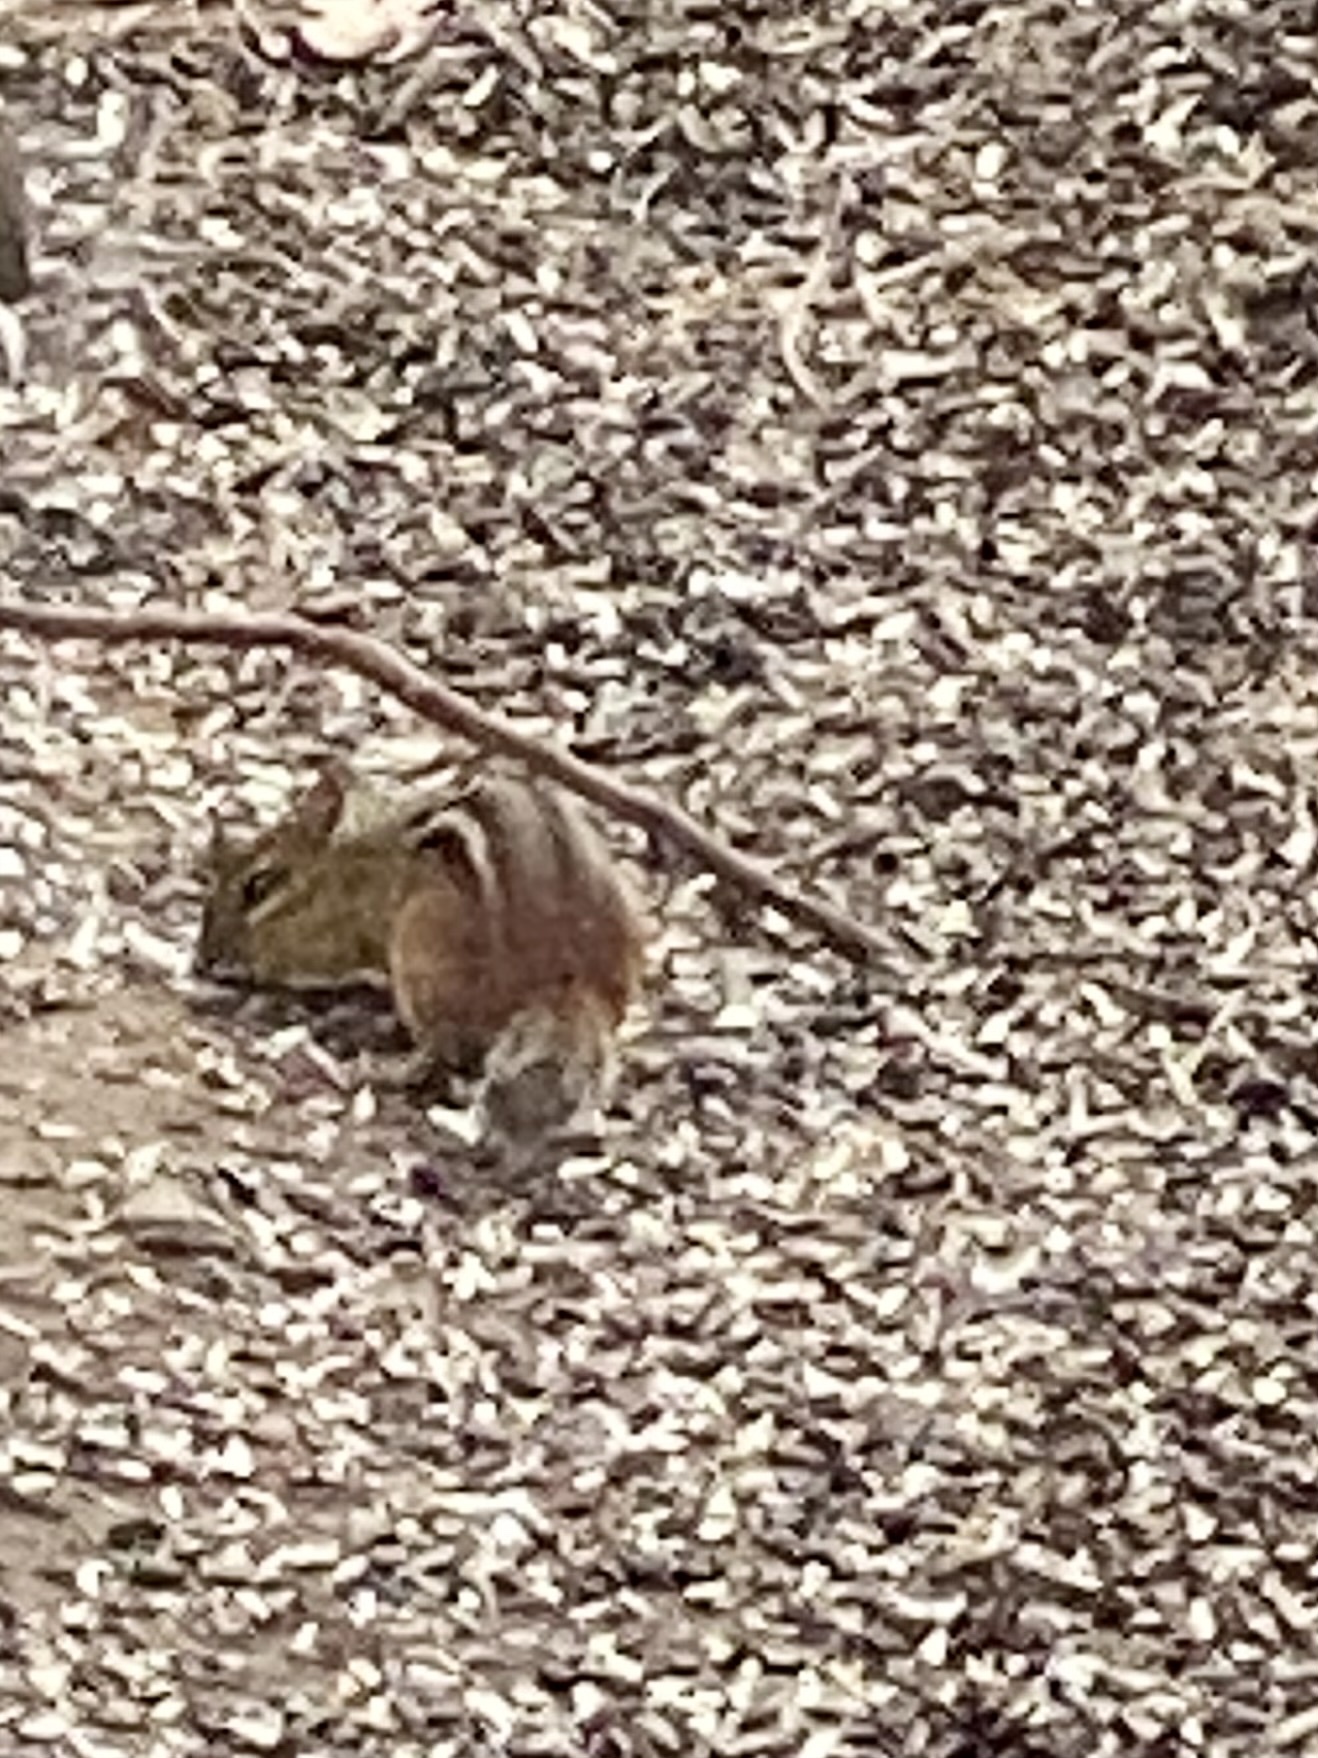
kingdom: Animalia
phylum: Chordata
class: Mammalia
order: Rodentia
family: Sciuridae
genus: Tamias
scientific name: Tamias striatus
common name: Eastern chipmunk
